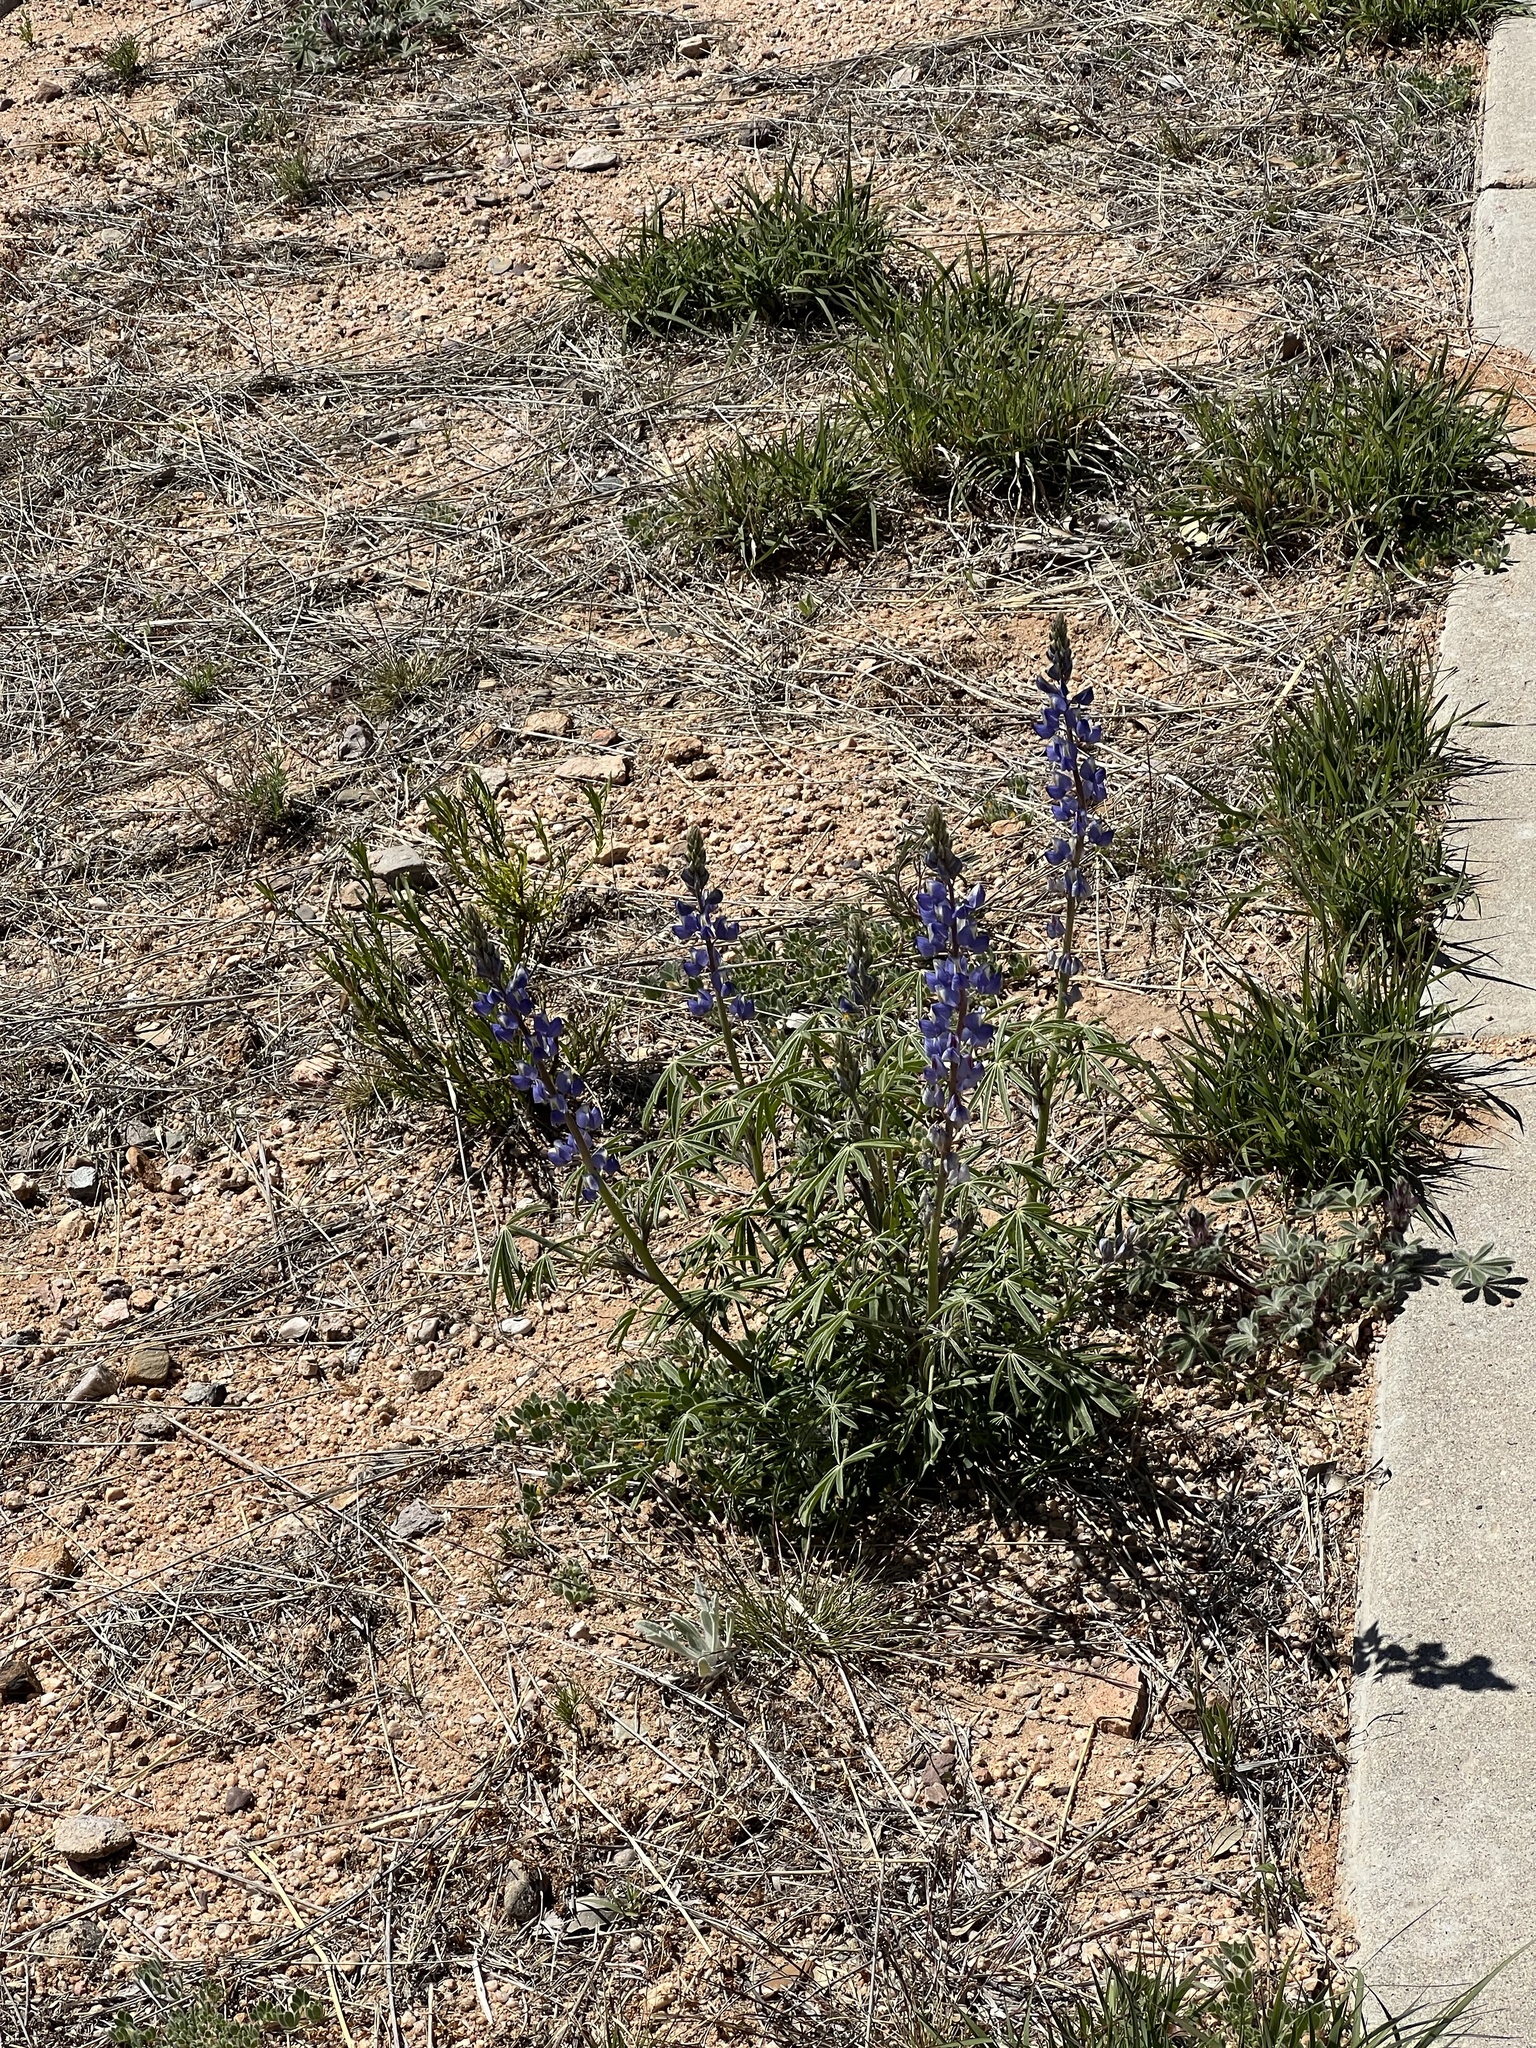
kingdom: Plantae
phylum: Tracheophyta
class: Magnoliopsida
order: Fabales
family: Fabaceae
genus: Lupinus
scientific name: Lupinus sparsiflorus
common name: Coulter's lupine
